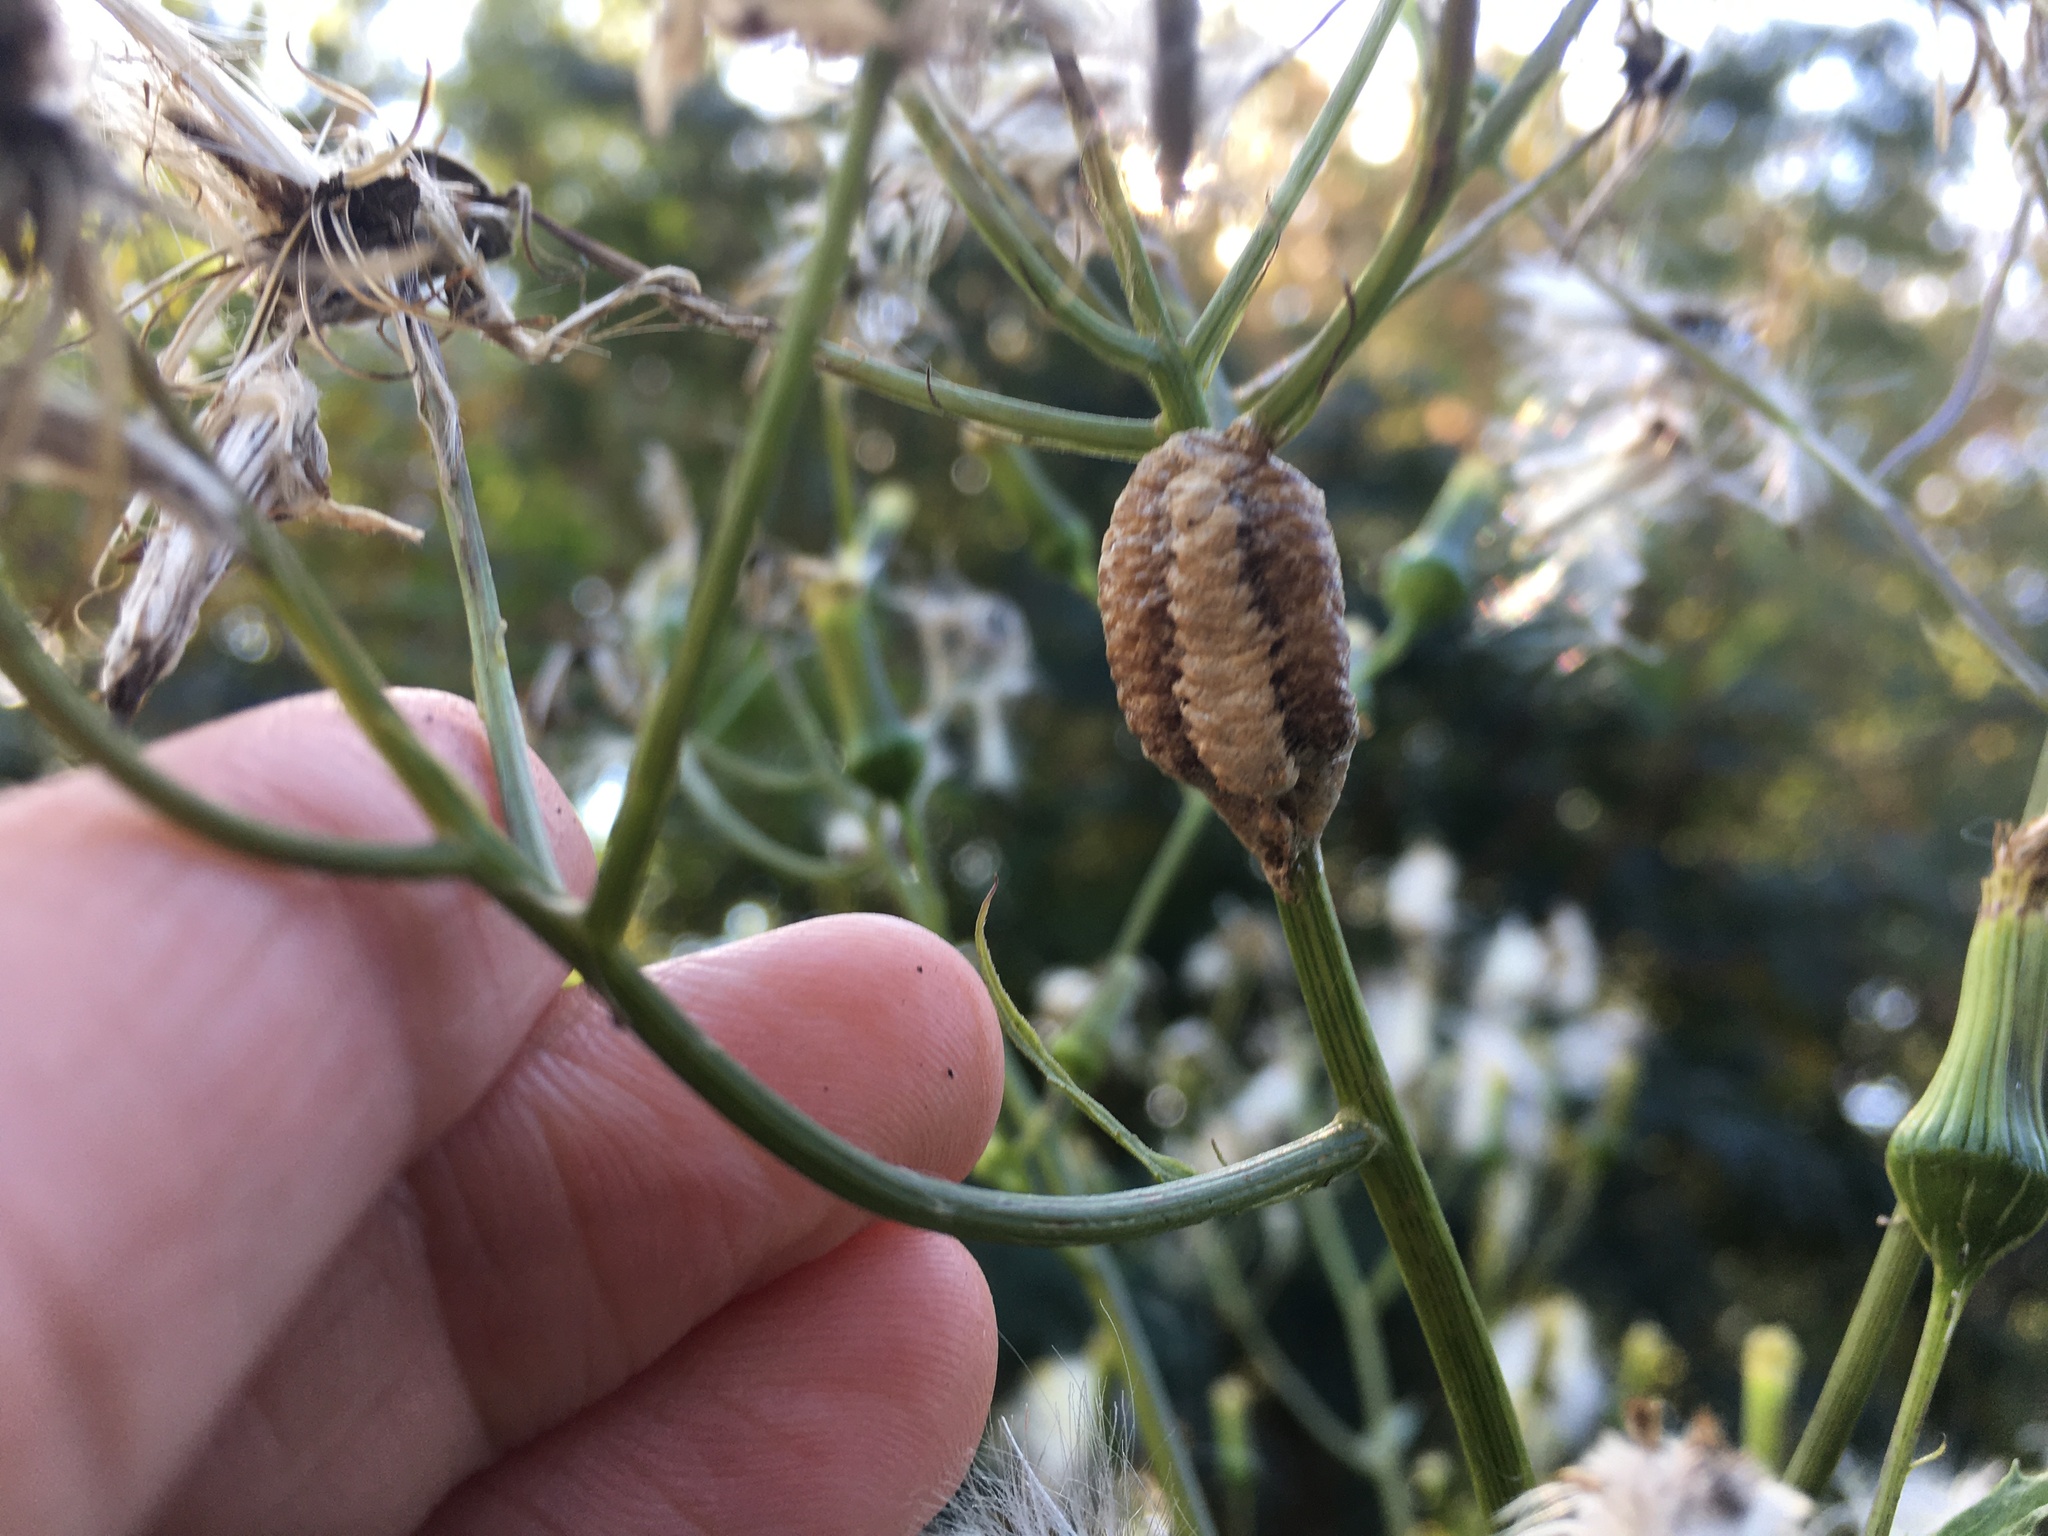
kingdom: Animalia
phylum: Arthropoda
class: Insecta
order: Mantodea
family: Mantidae
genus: Stagmomantis
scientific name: Stagmomantis carolina
